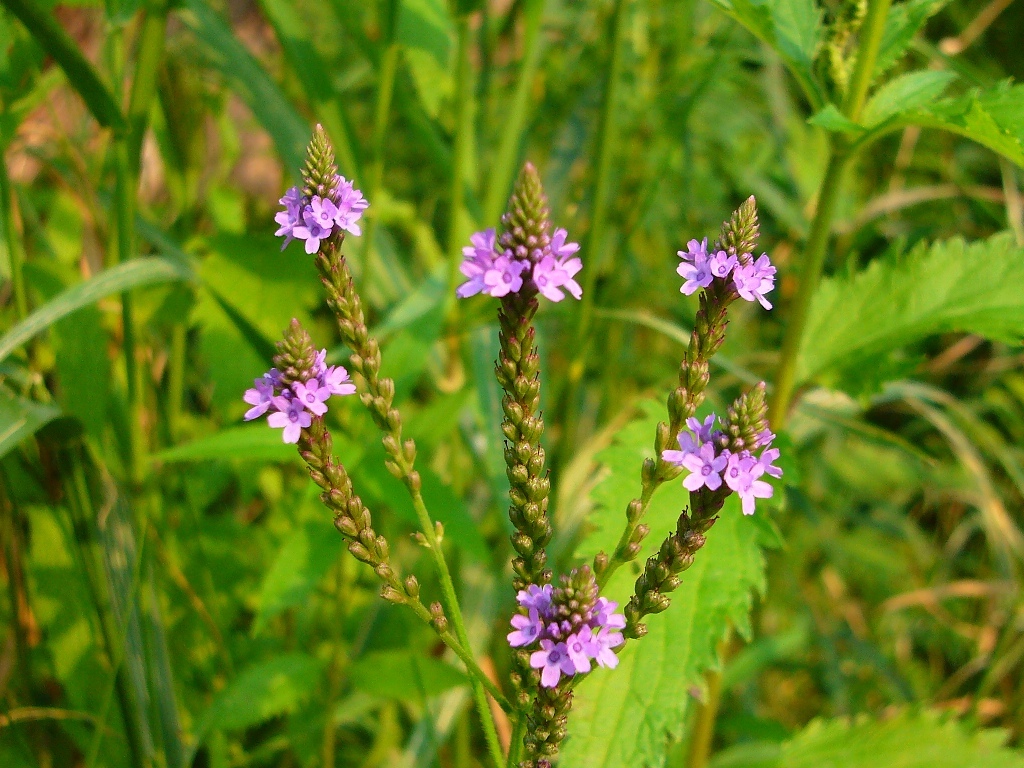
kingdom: Plantae
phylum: Tracheophyta
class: Magnoliopsida
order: Lamiales
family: Verbenaceae
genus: Verbena
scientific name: Verbena hastata
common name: American blue vervain
